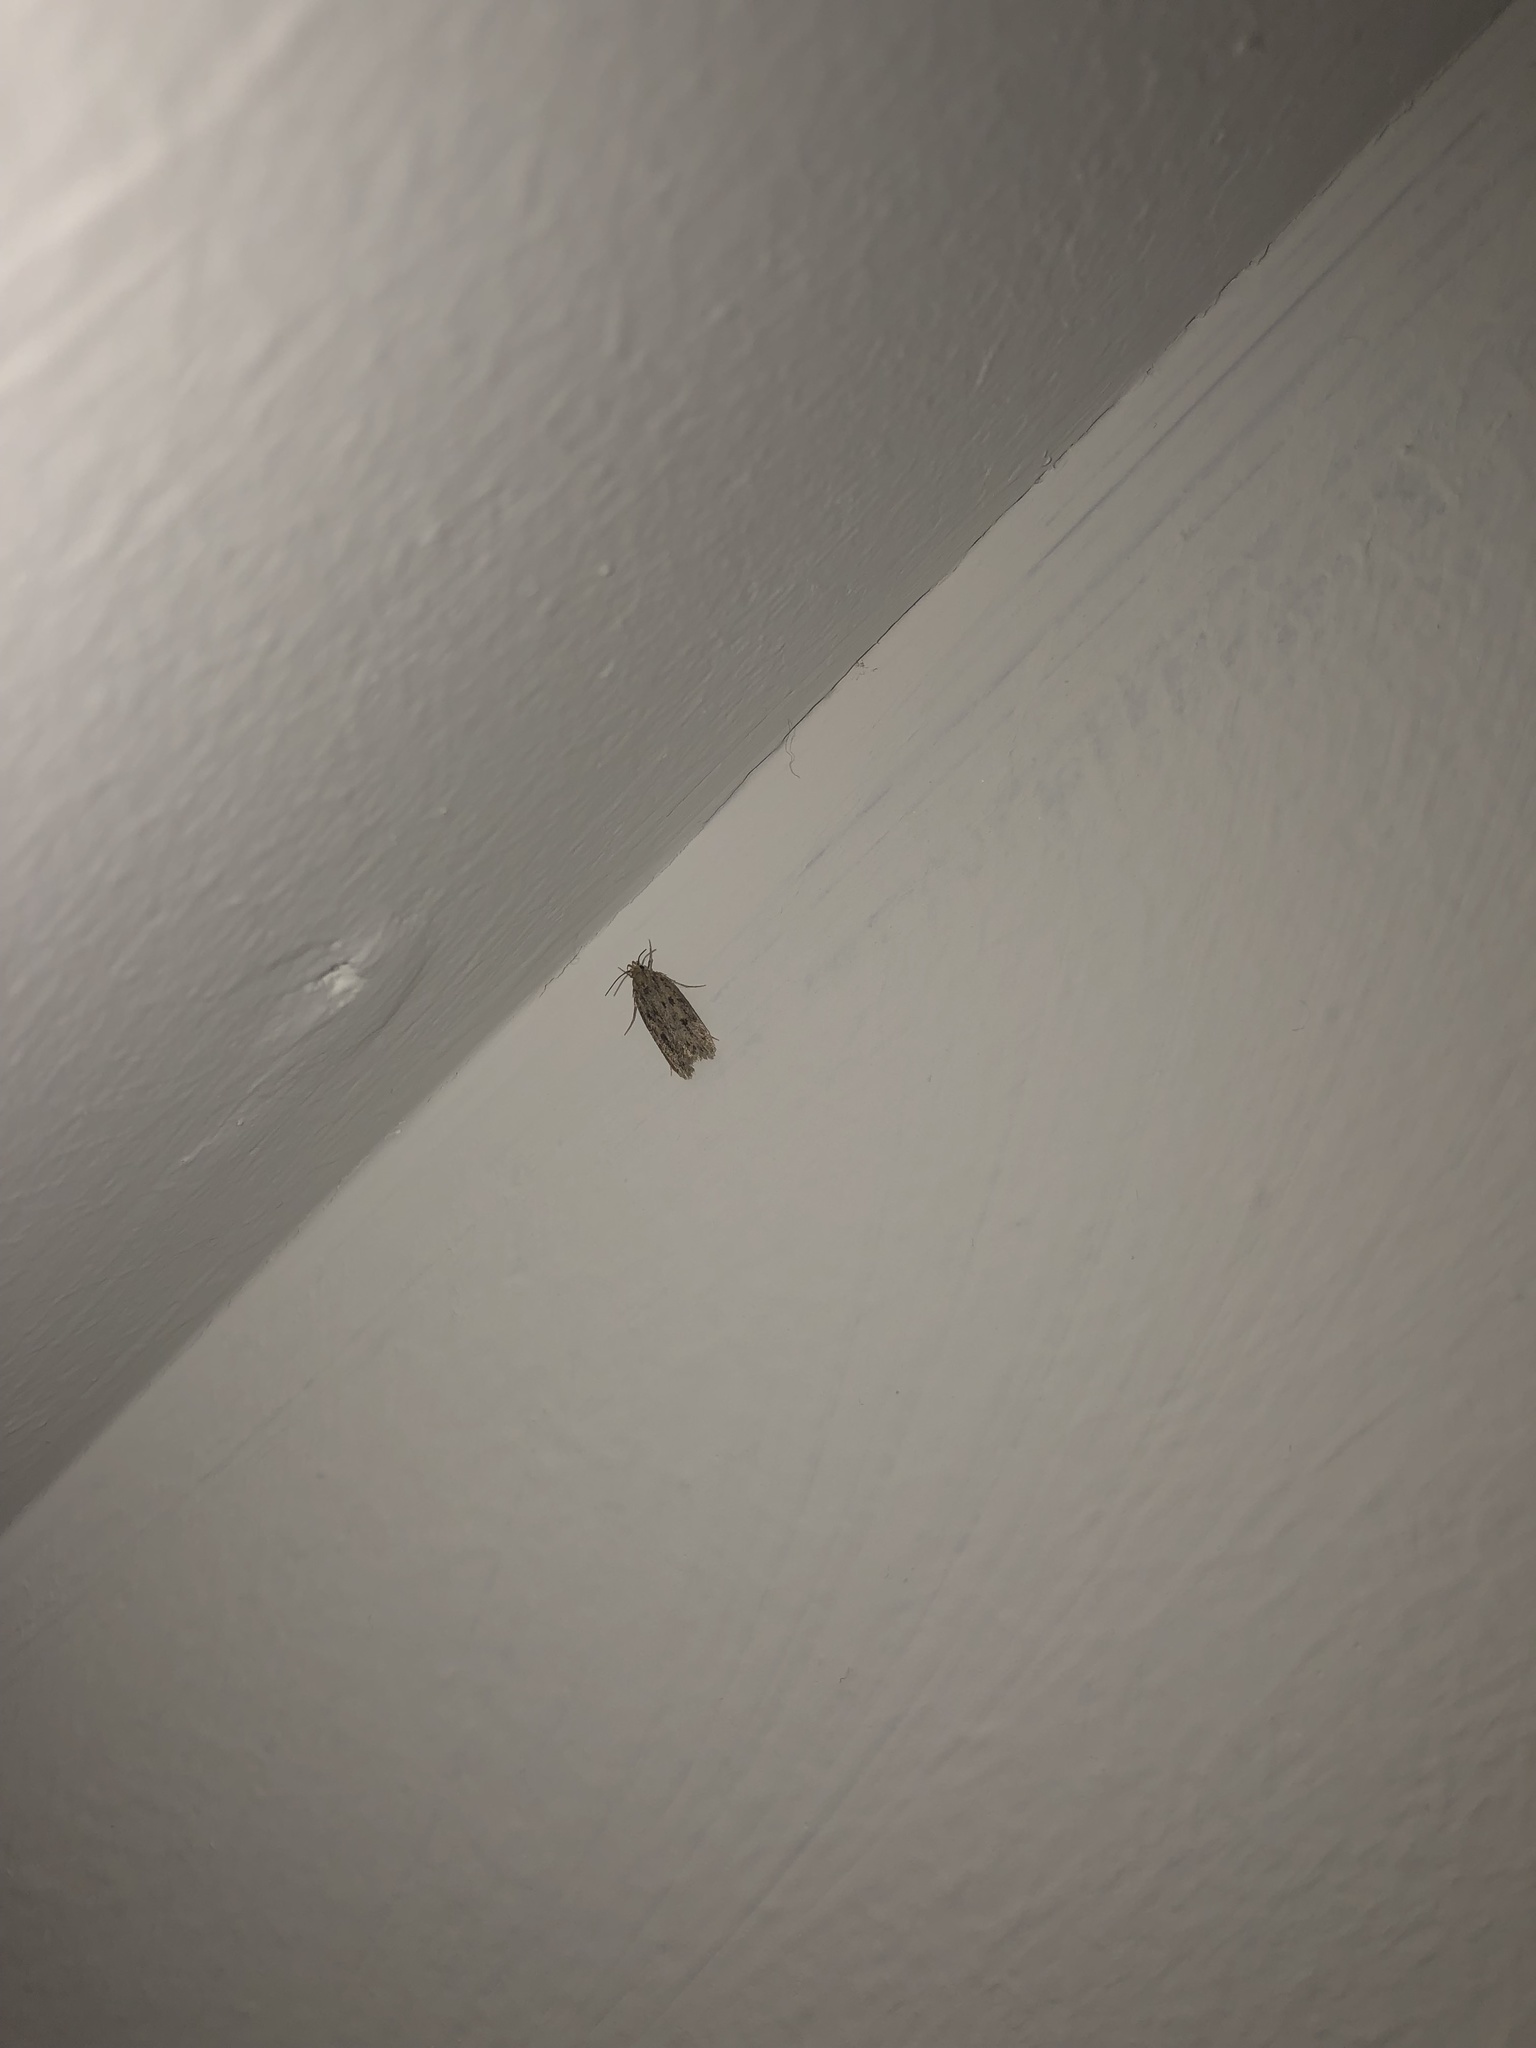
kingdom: Animalia
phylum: Arthropoda
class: Insecta
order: Lepidoptera
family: Oecophoridae
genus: Hofmannophila
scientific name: Hofmannophila pseudospretella
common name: Brown house moth
